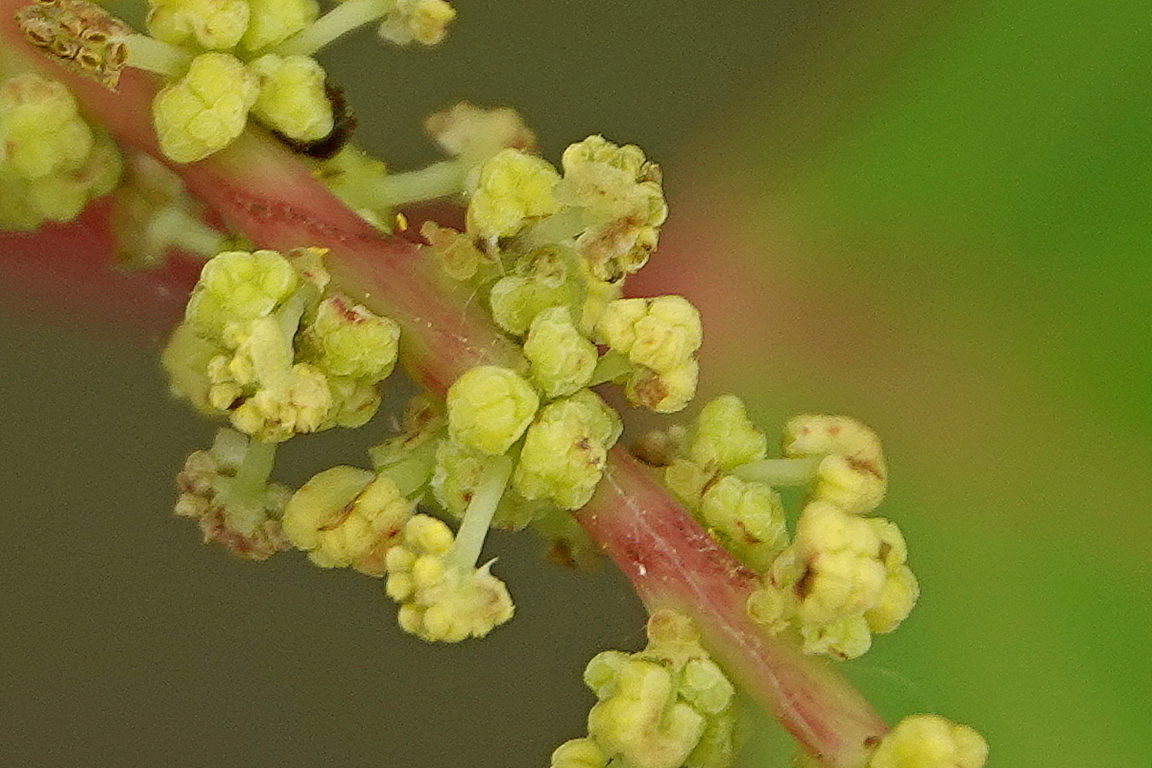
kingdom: Plantae
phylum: Tracheophyta
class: Magnoliopsida
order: Malpighiales
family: Euphorbiaceae
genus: Homalanthus
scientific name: Homalanthus populifolius
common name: Queensland poplar
